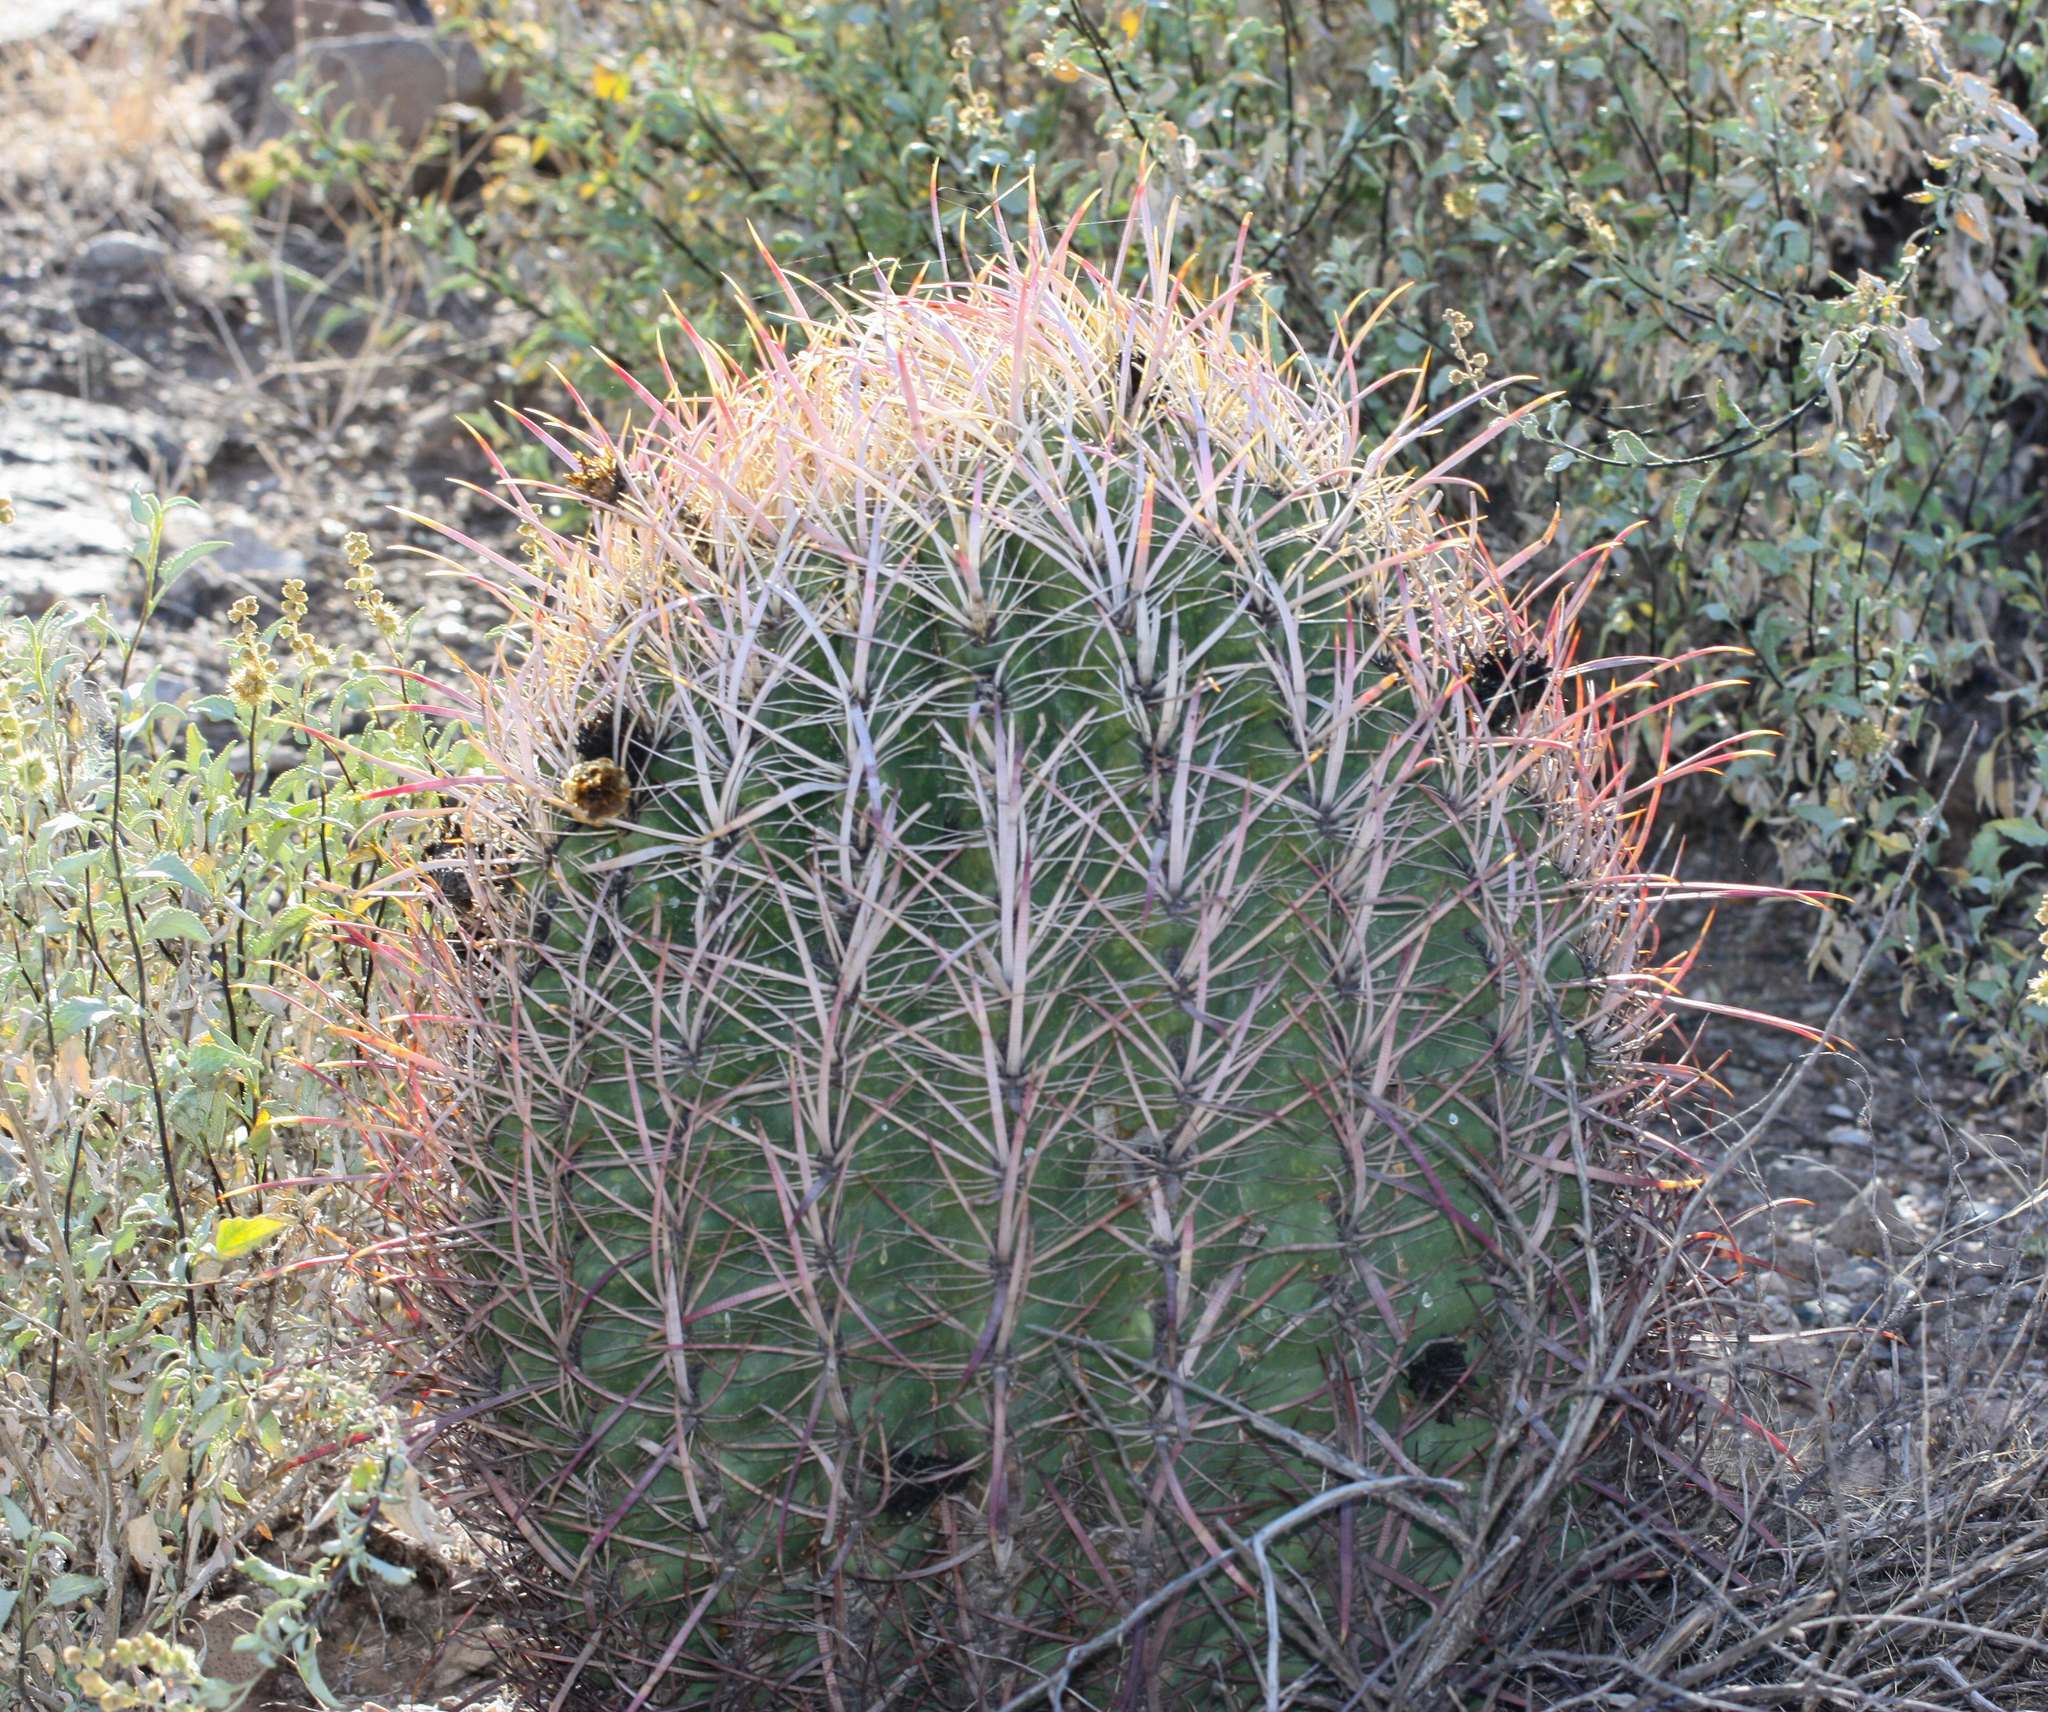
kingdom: Plantae
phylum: Tracheophyta
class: Magnoliopsida
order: Caryophyllales
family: Cactaceae
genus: Ferocactus
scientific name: Ferocactus cylindraceus
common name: California barrel cactus
